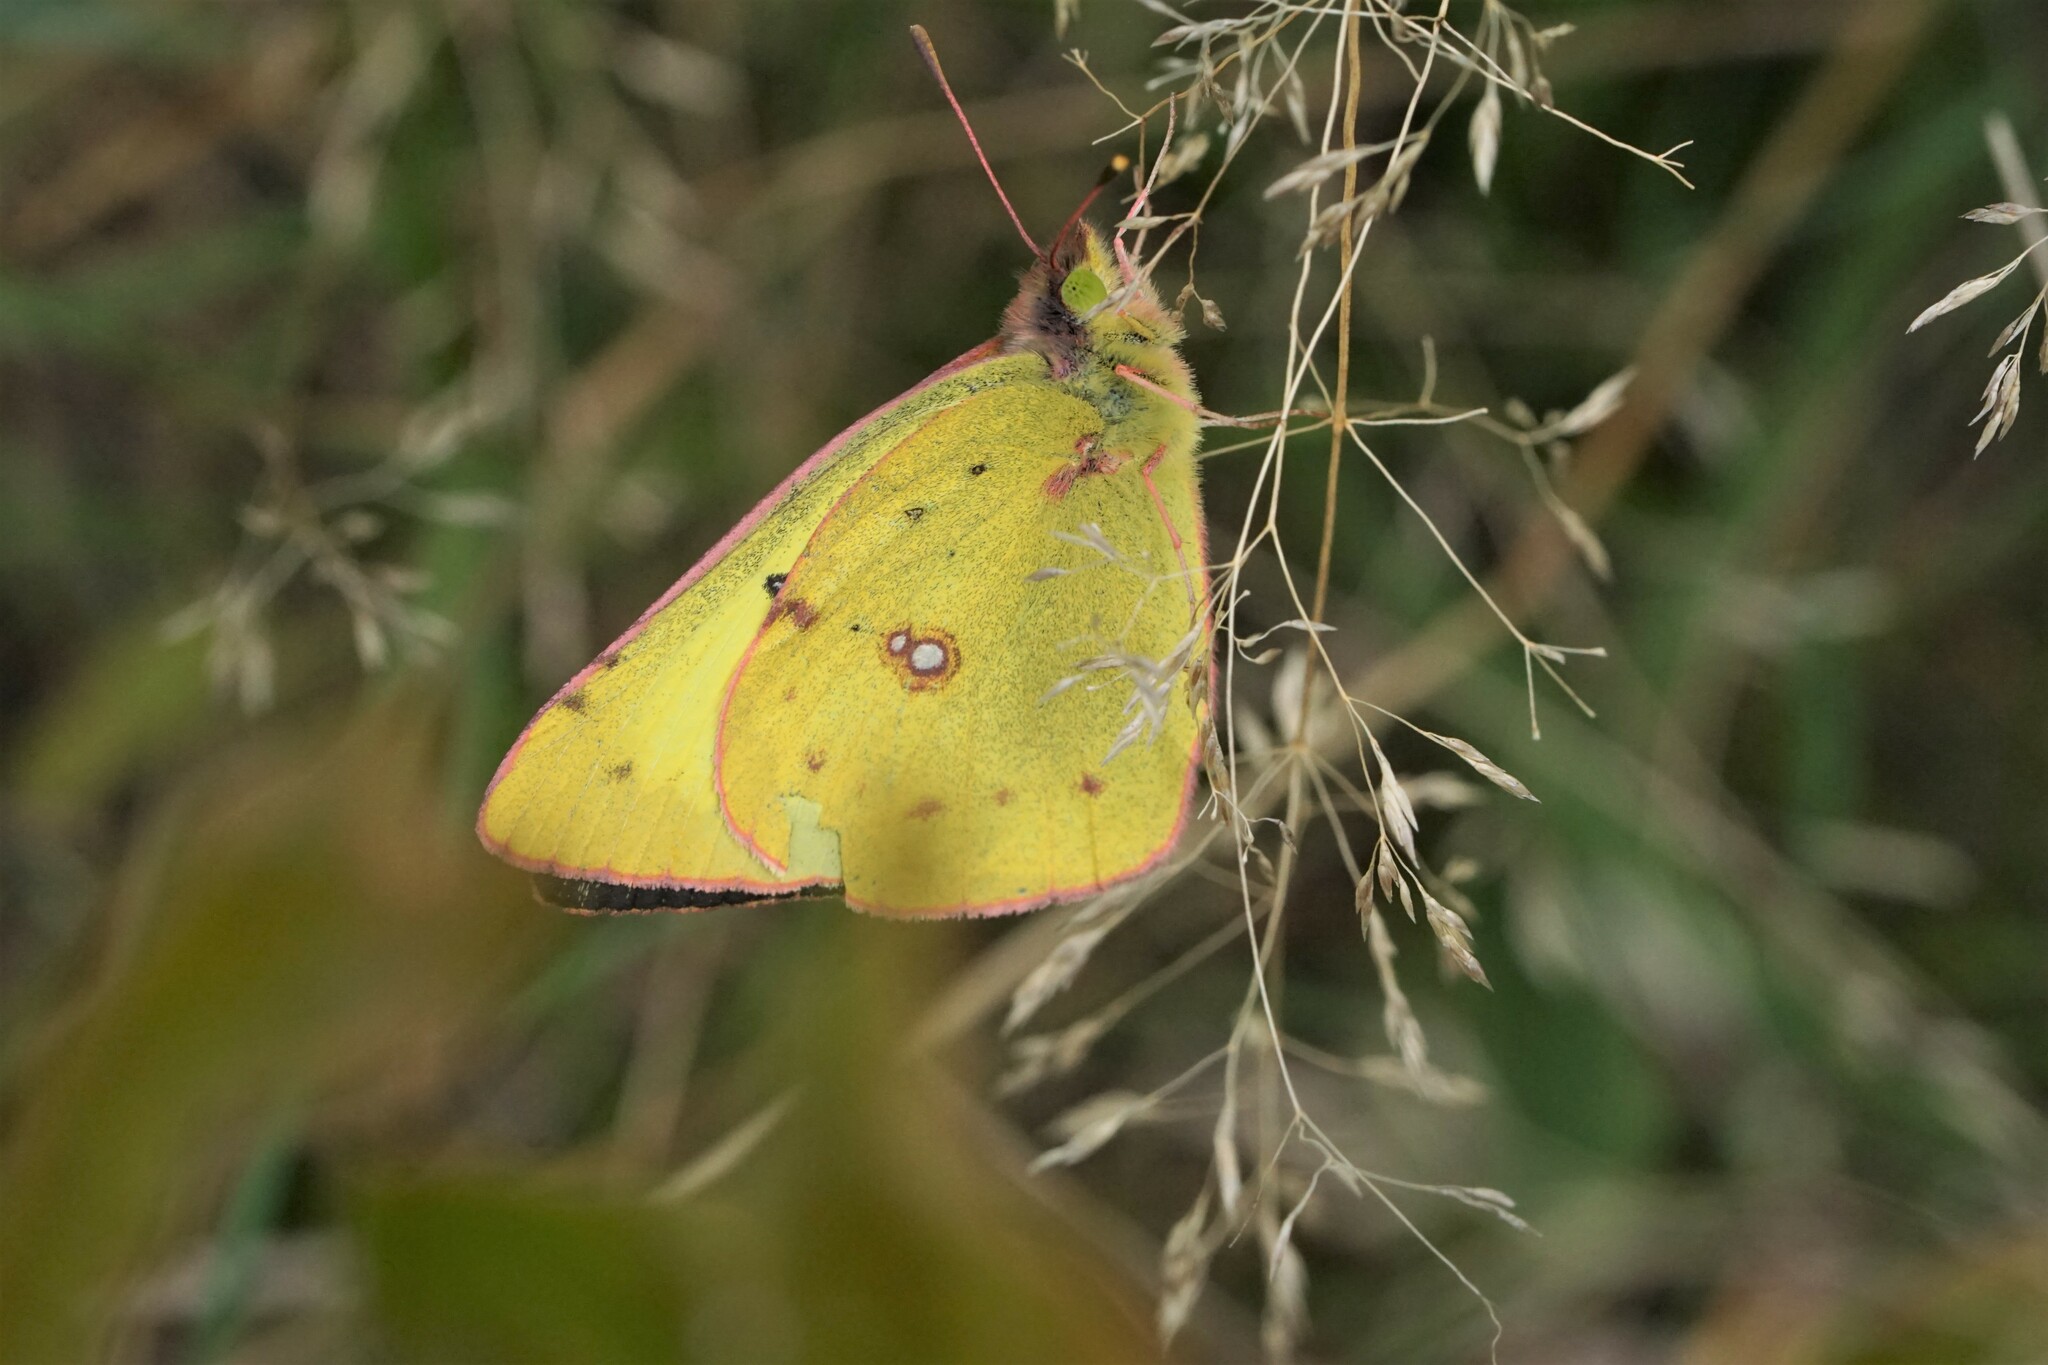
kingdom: Animalia
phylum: Arthropoda
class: Insecta
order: Lepidoptera
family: Pieridae
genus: Colias
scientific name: Colias philodice
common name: Clouded sulphur
